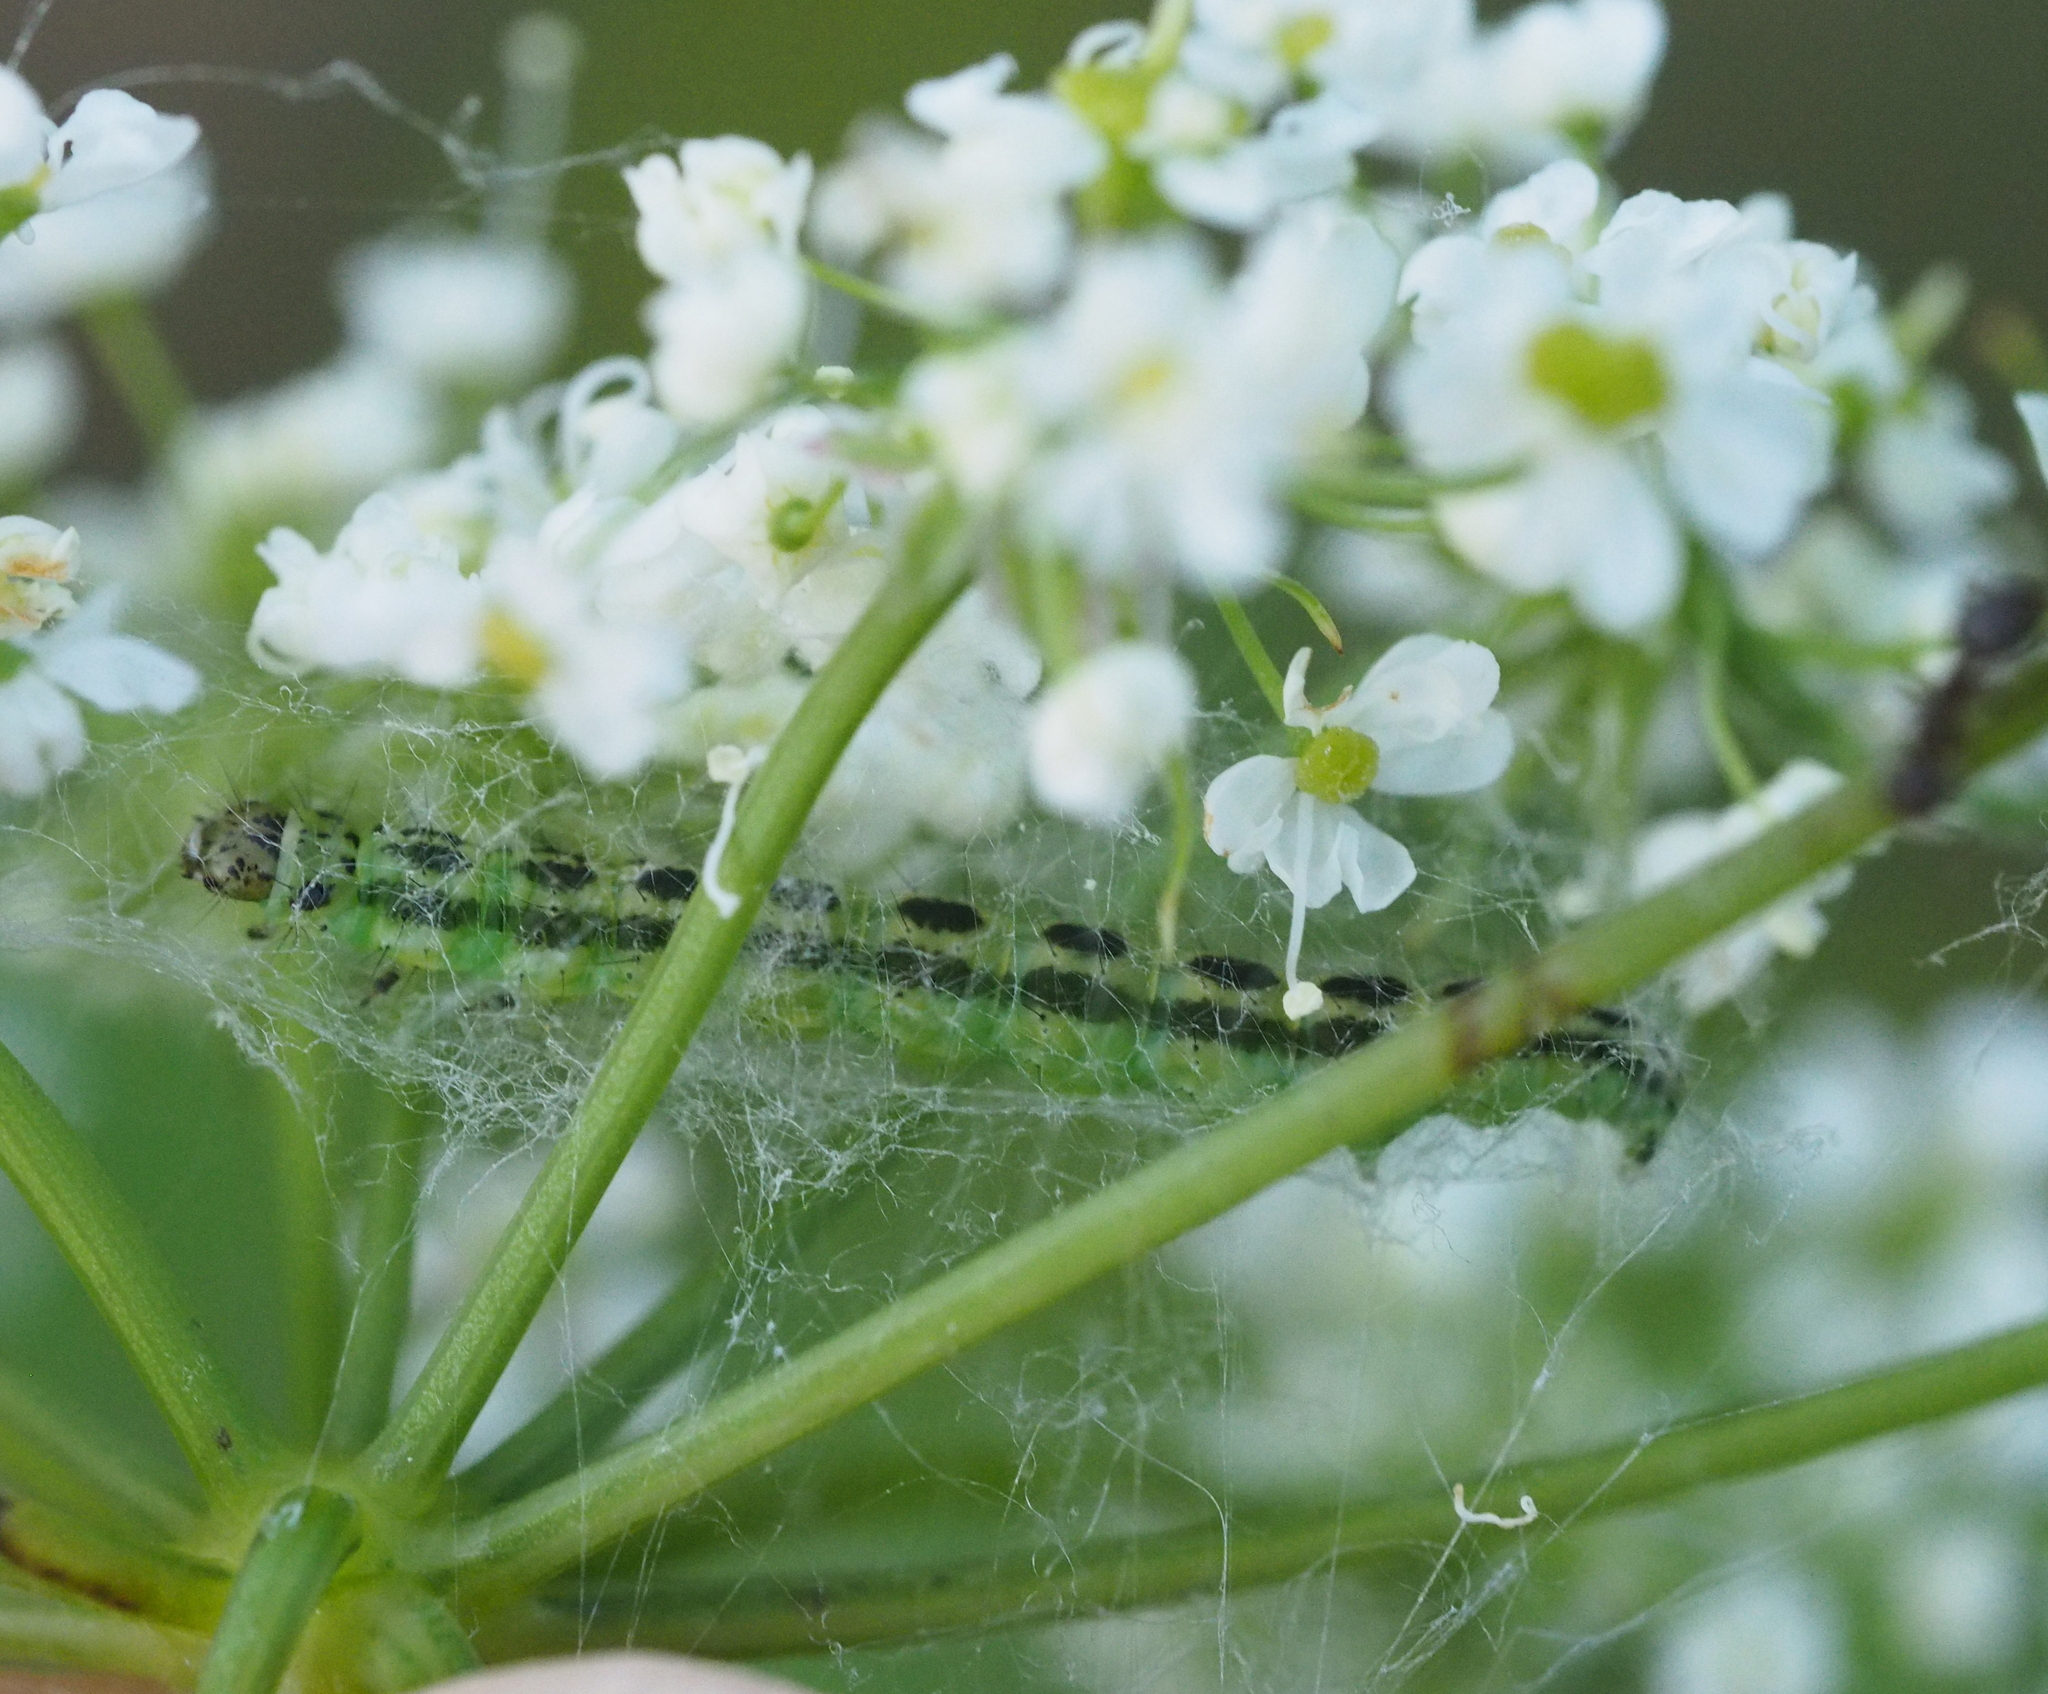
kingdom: Animalia
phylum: Arthropoda
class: Insecta
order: Lepidoptera
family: Depressariidae
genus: Depressaria
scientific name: Depressaria chaerophylli
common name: Streaked flat-body
